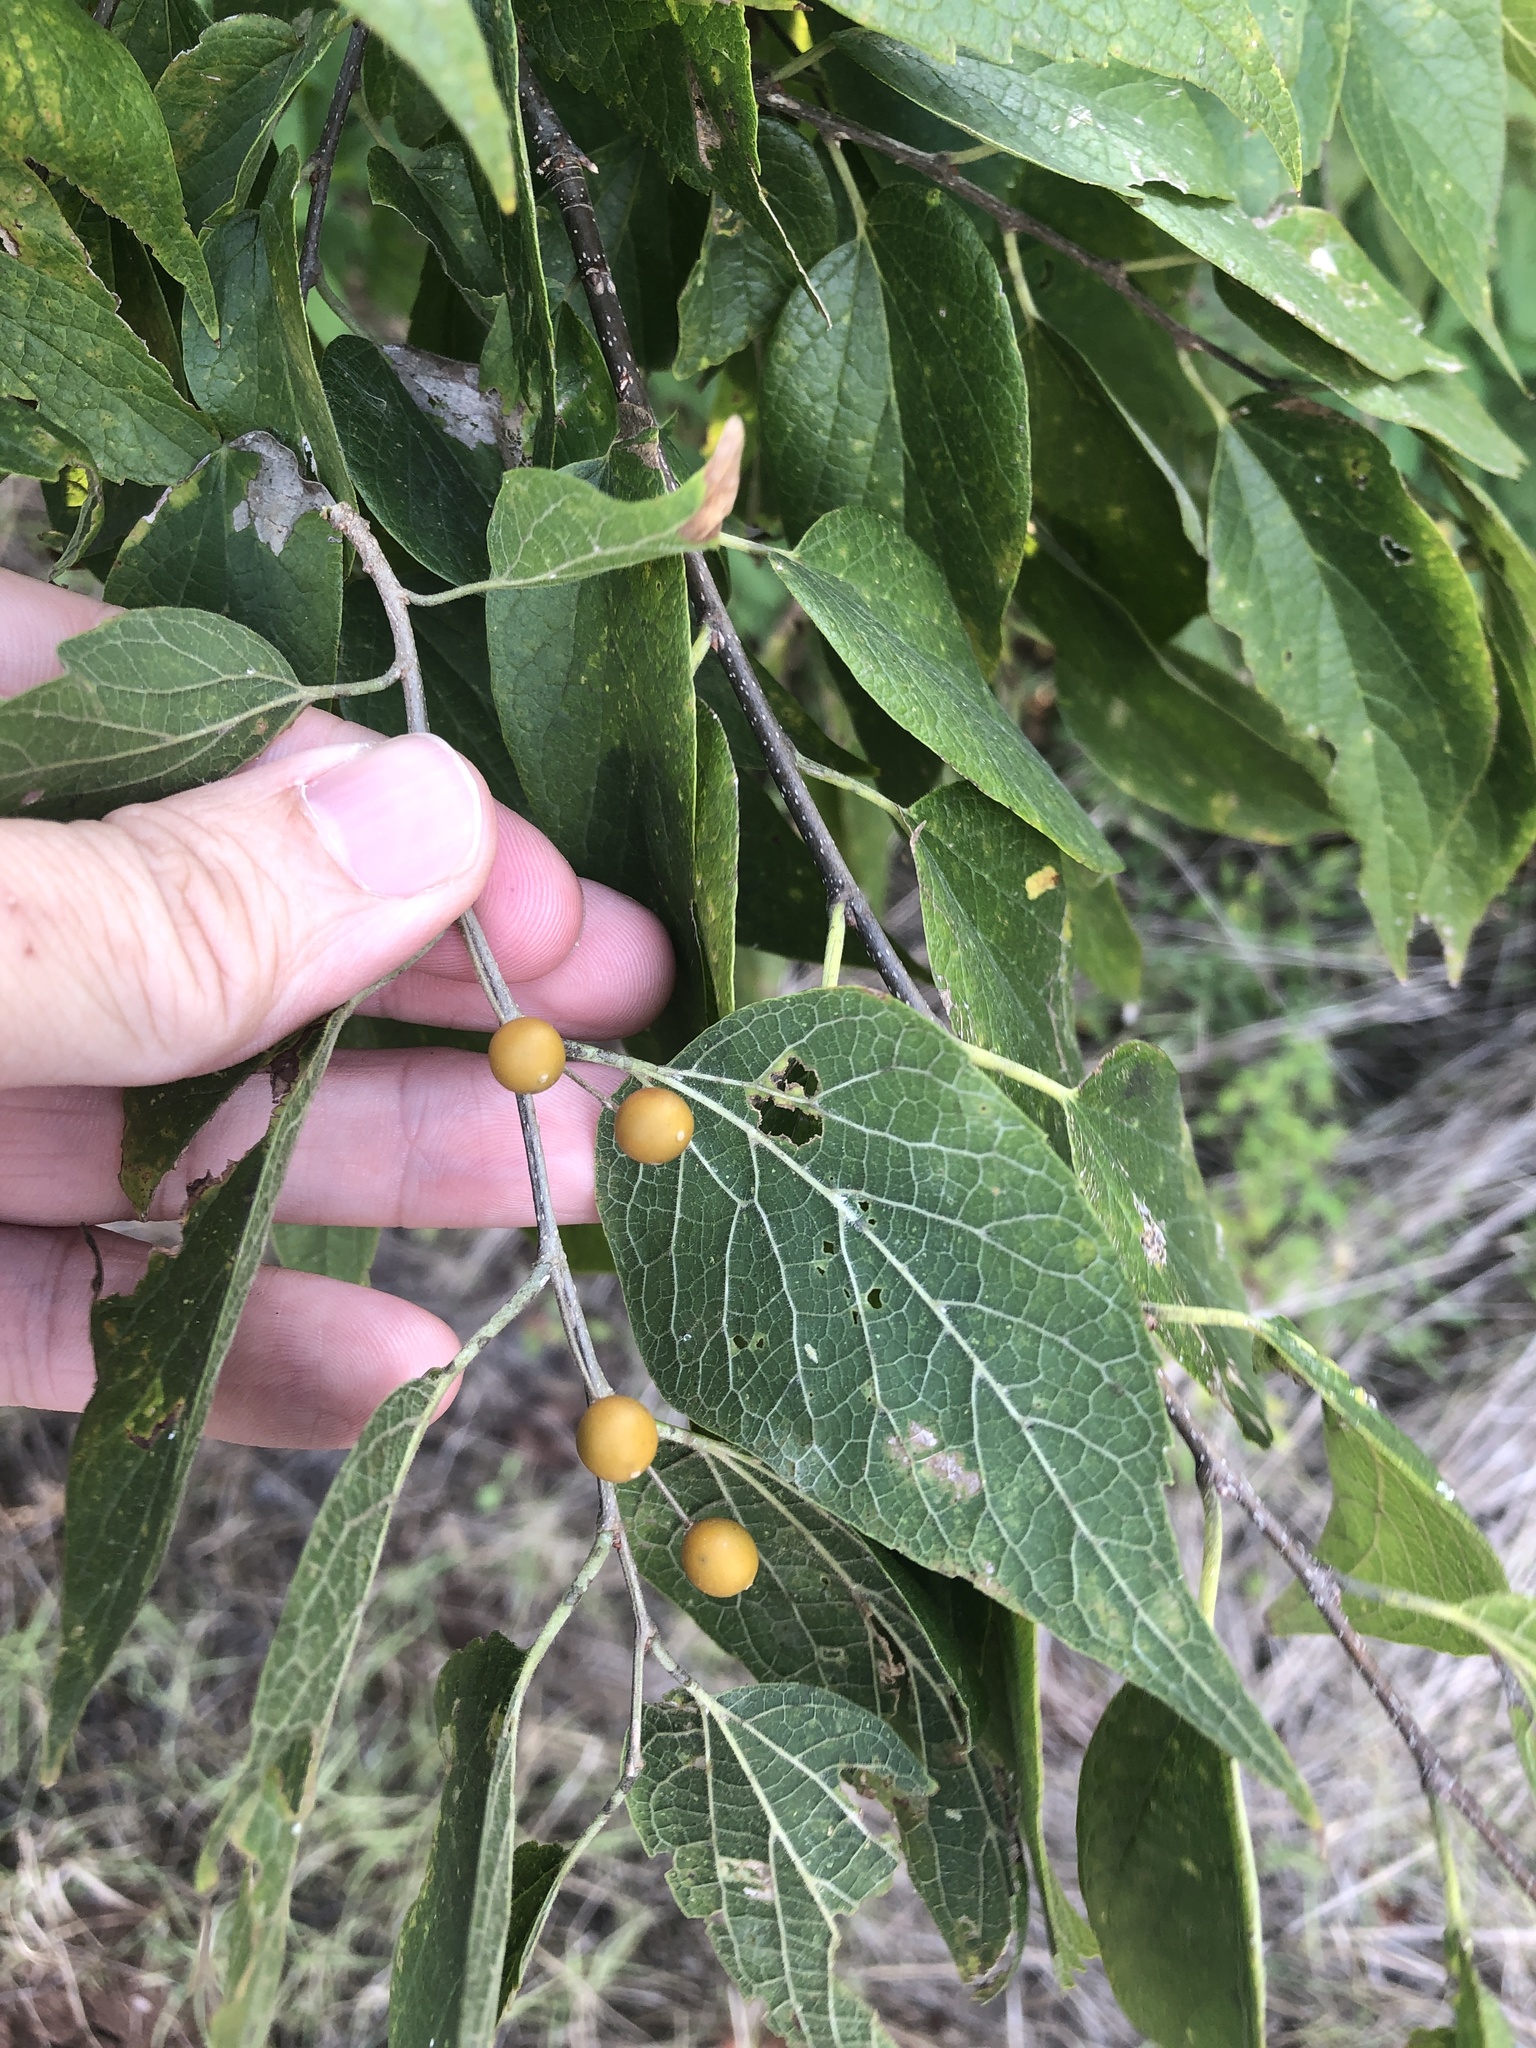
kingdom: Plantae
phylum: Tracheophyta
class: Magnoliopsida
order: Rosales
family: Cannabaceae
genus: Celtis
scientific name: Celtis laevigata
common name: Sugarberry
